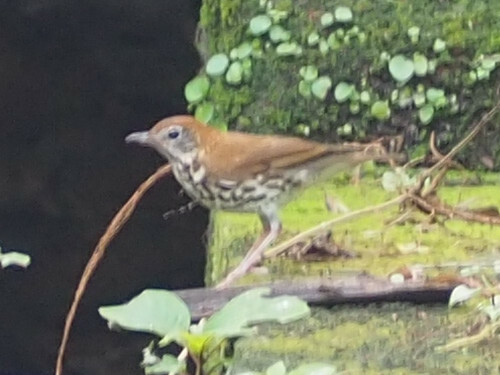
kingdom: Animalia
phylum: Chordata
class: Aves
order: Passeriformes
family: Turdidae
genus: Hylocichla
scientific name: Hylocichla mustelina
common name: Wood thrush
